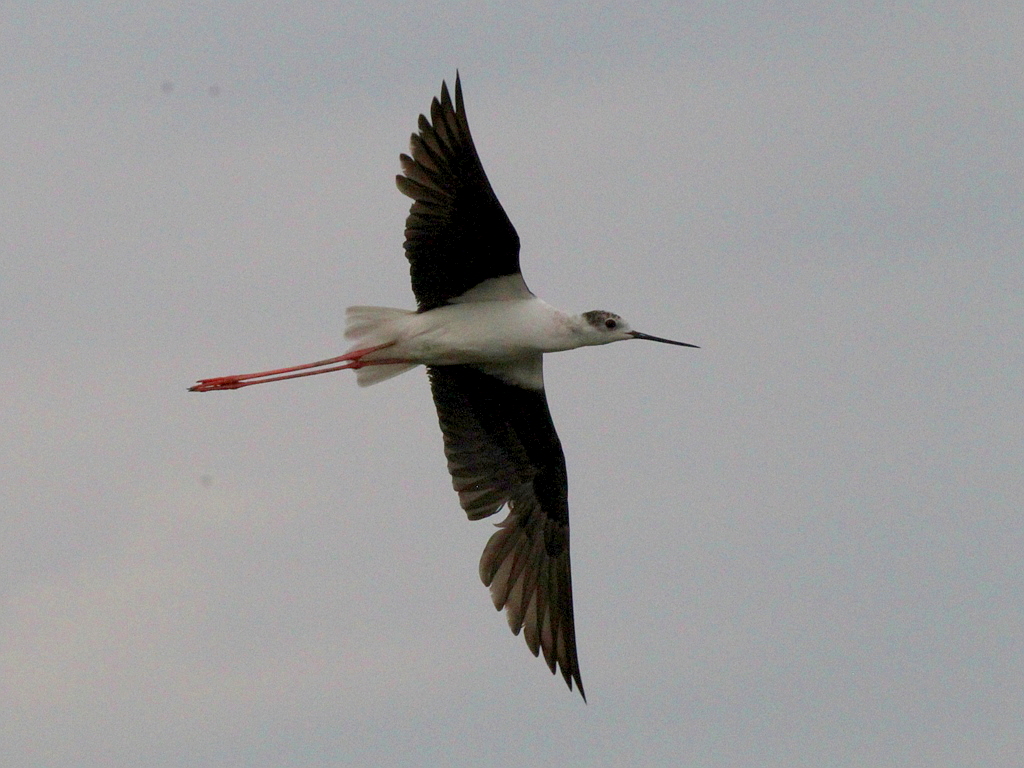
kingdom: Animalia
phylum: Chordata
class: Aves
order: Charadriiformes
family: Recurvirostridae
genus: Himantopus
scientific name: Himantopus himantopus
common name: Black-winged stilt
